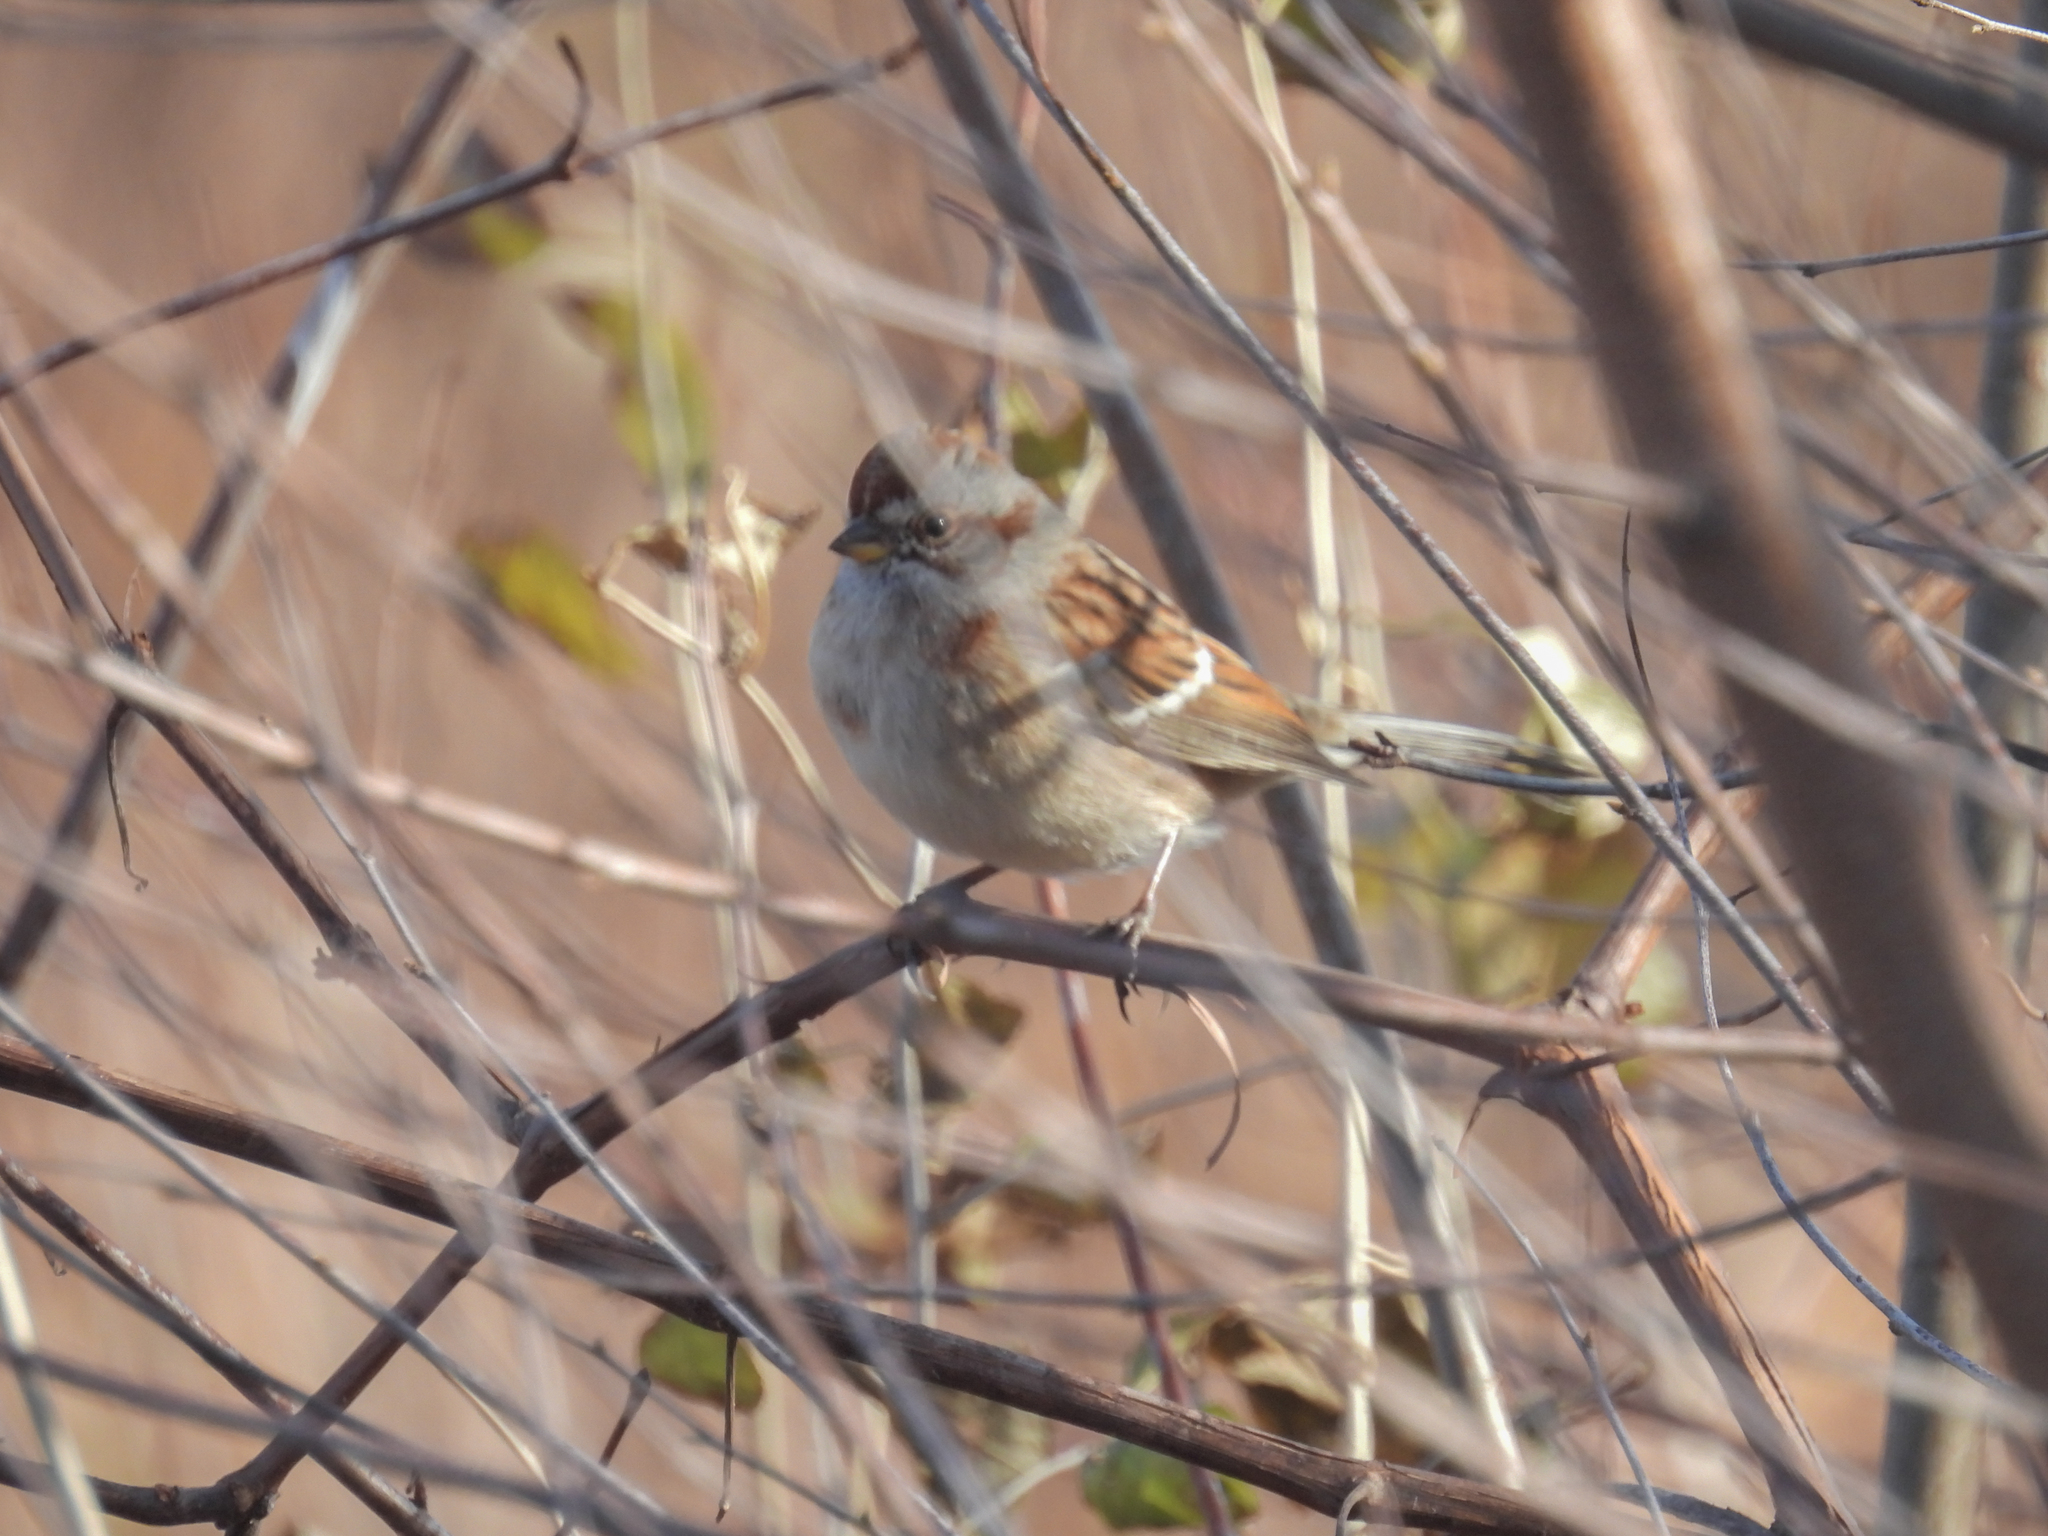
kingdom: Animalia
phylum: Chordata
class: Aves
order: Passeriformes
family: Passerellidae
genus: Spizelloides
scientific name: Spizelloides arborea
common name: American tree sparrow
